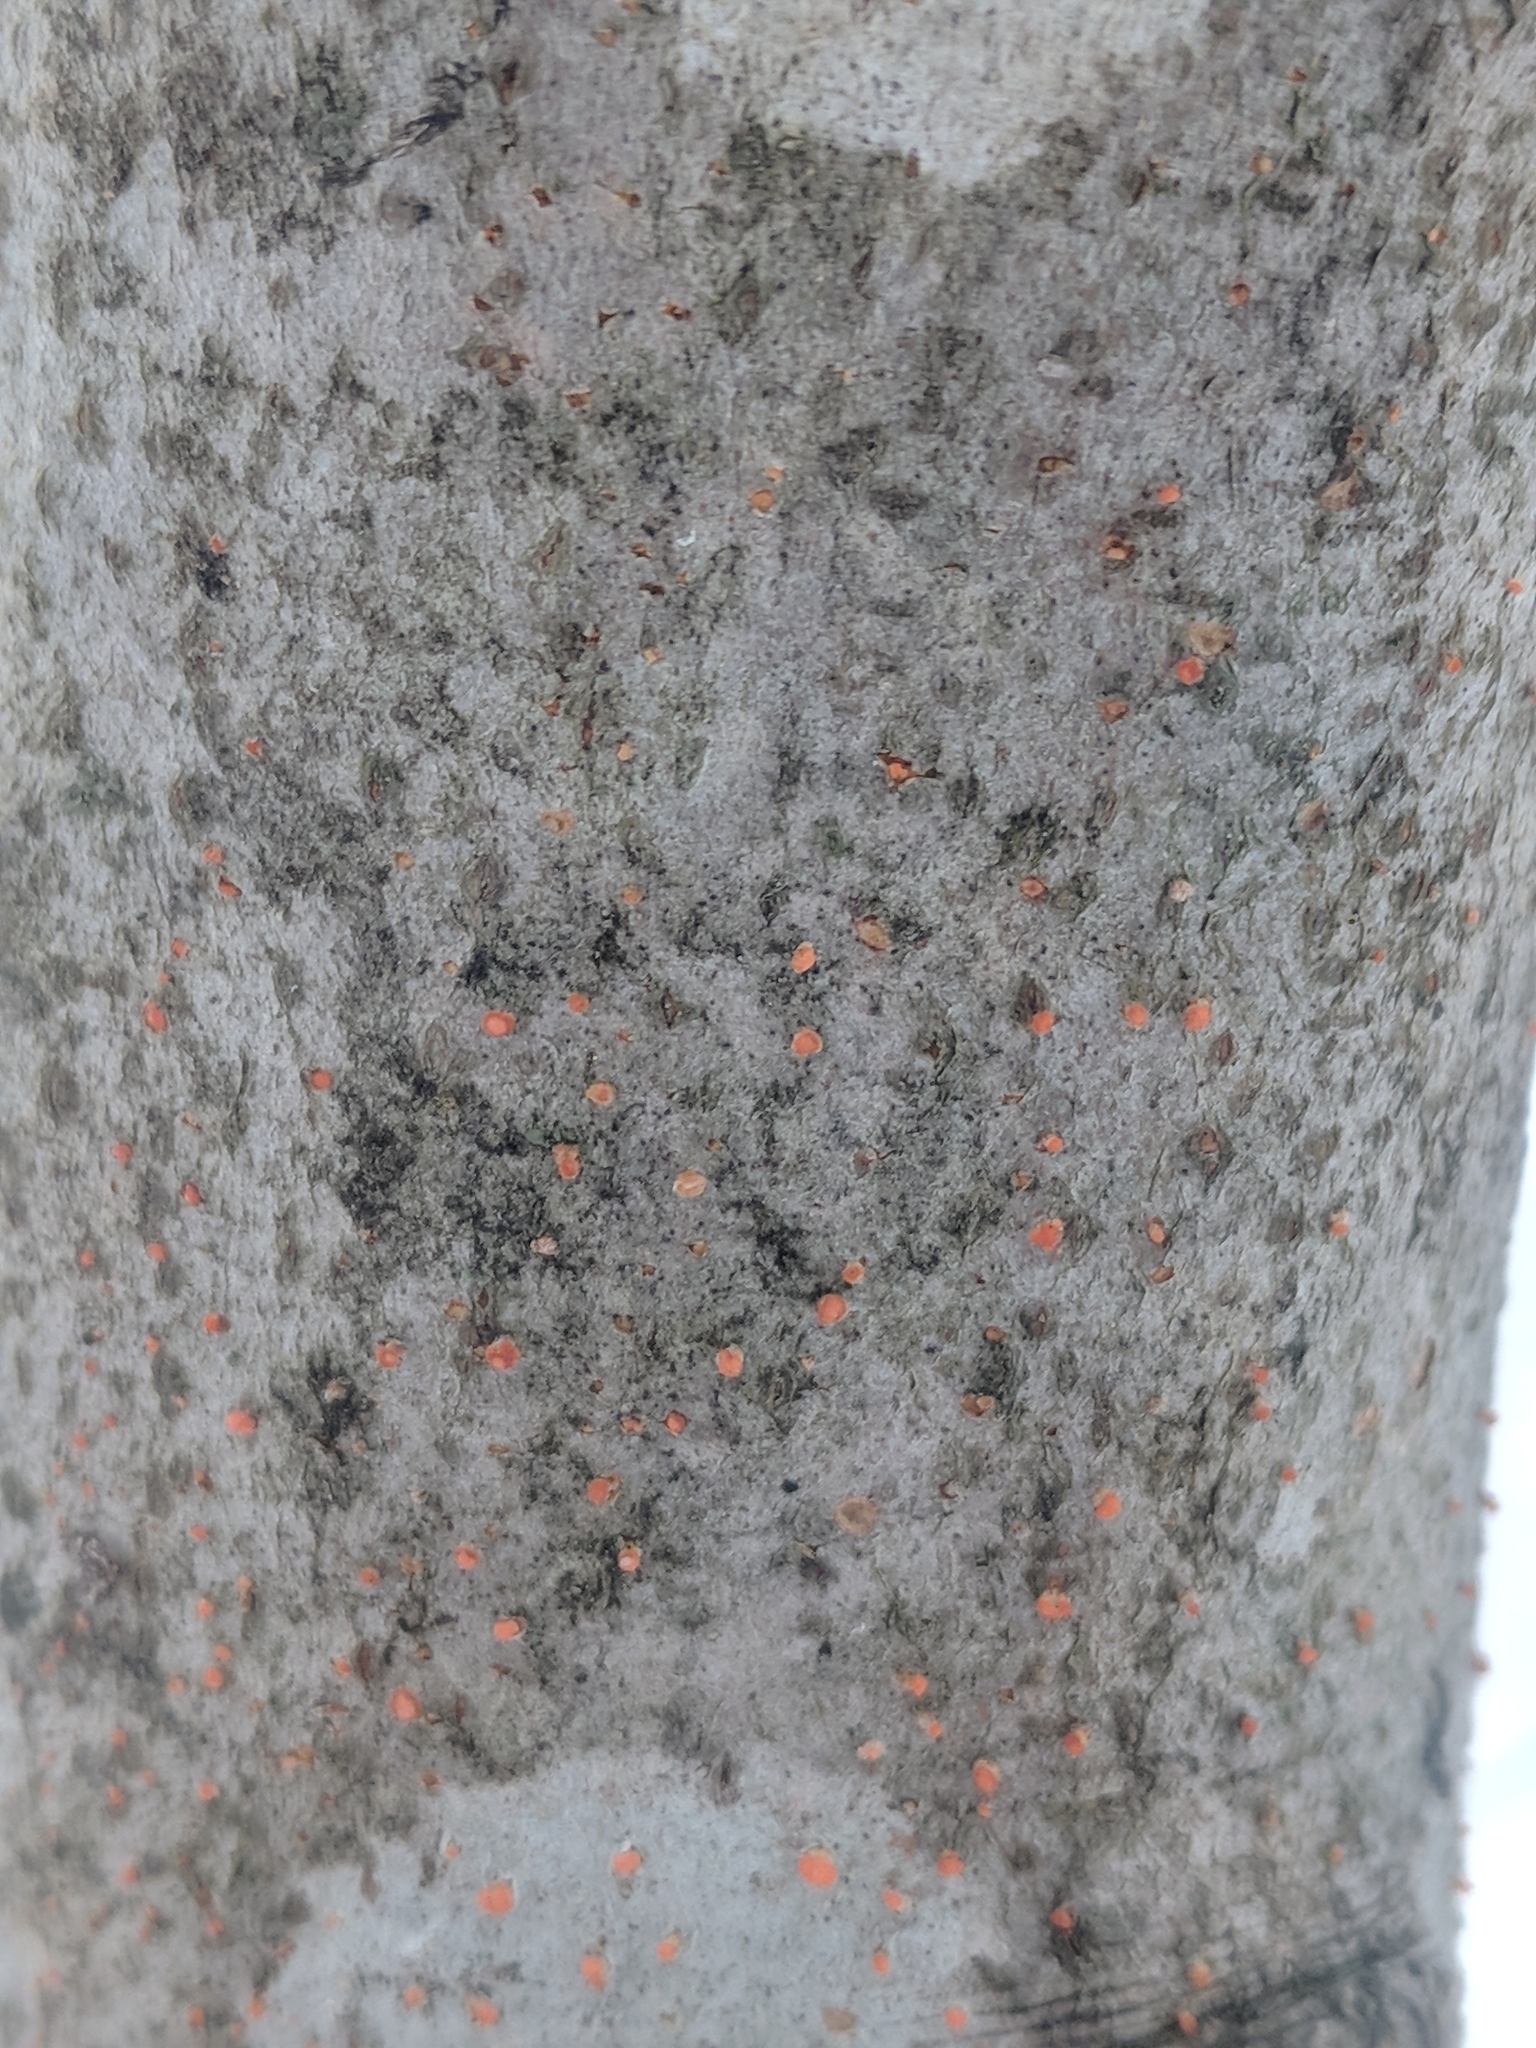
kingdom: Fungi
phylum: Ascomycota
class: Sordariomycetes
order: Hypocreales
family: Nectriaceae
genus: Nectria
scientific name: Nectria cinnabarina
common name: Coral spot
